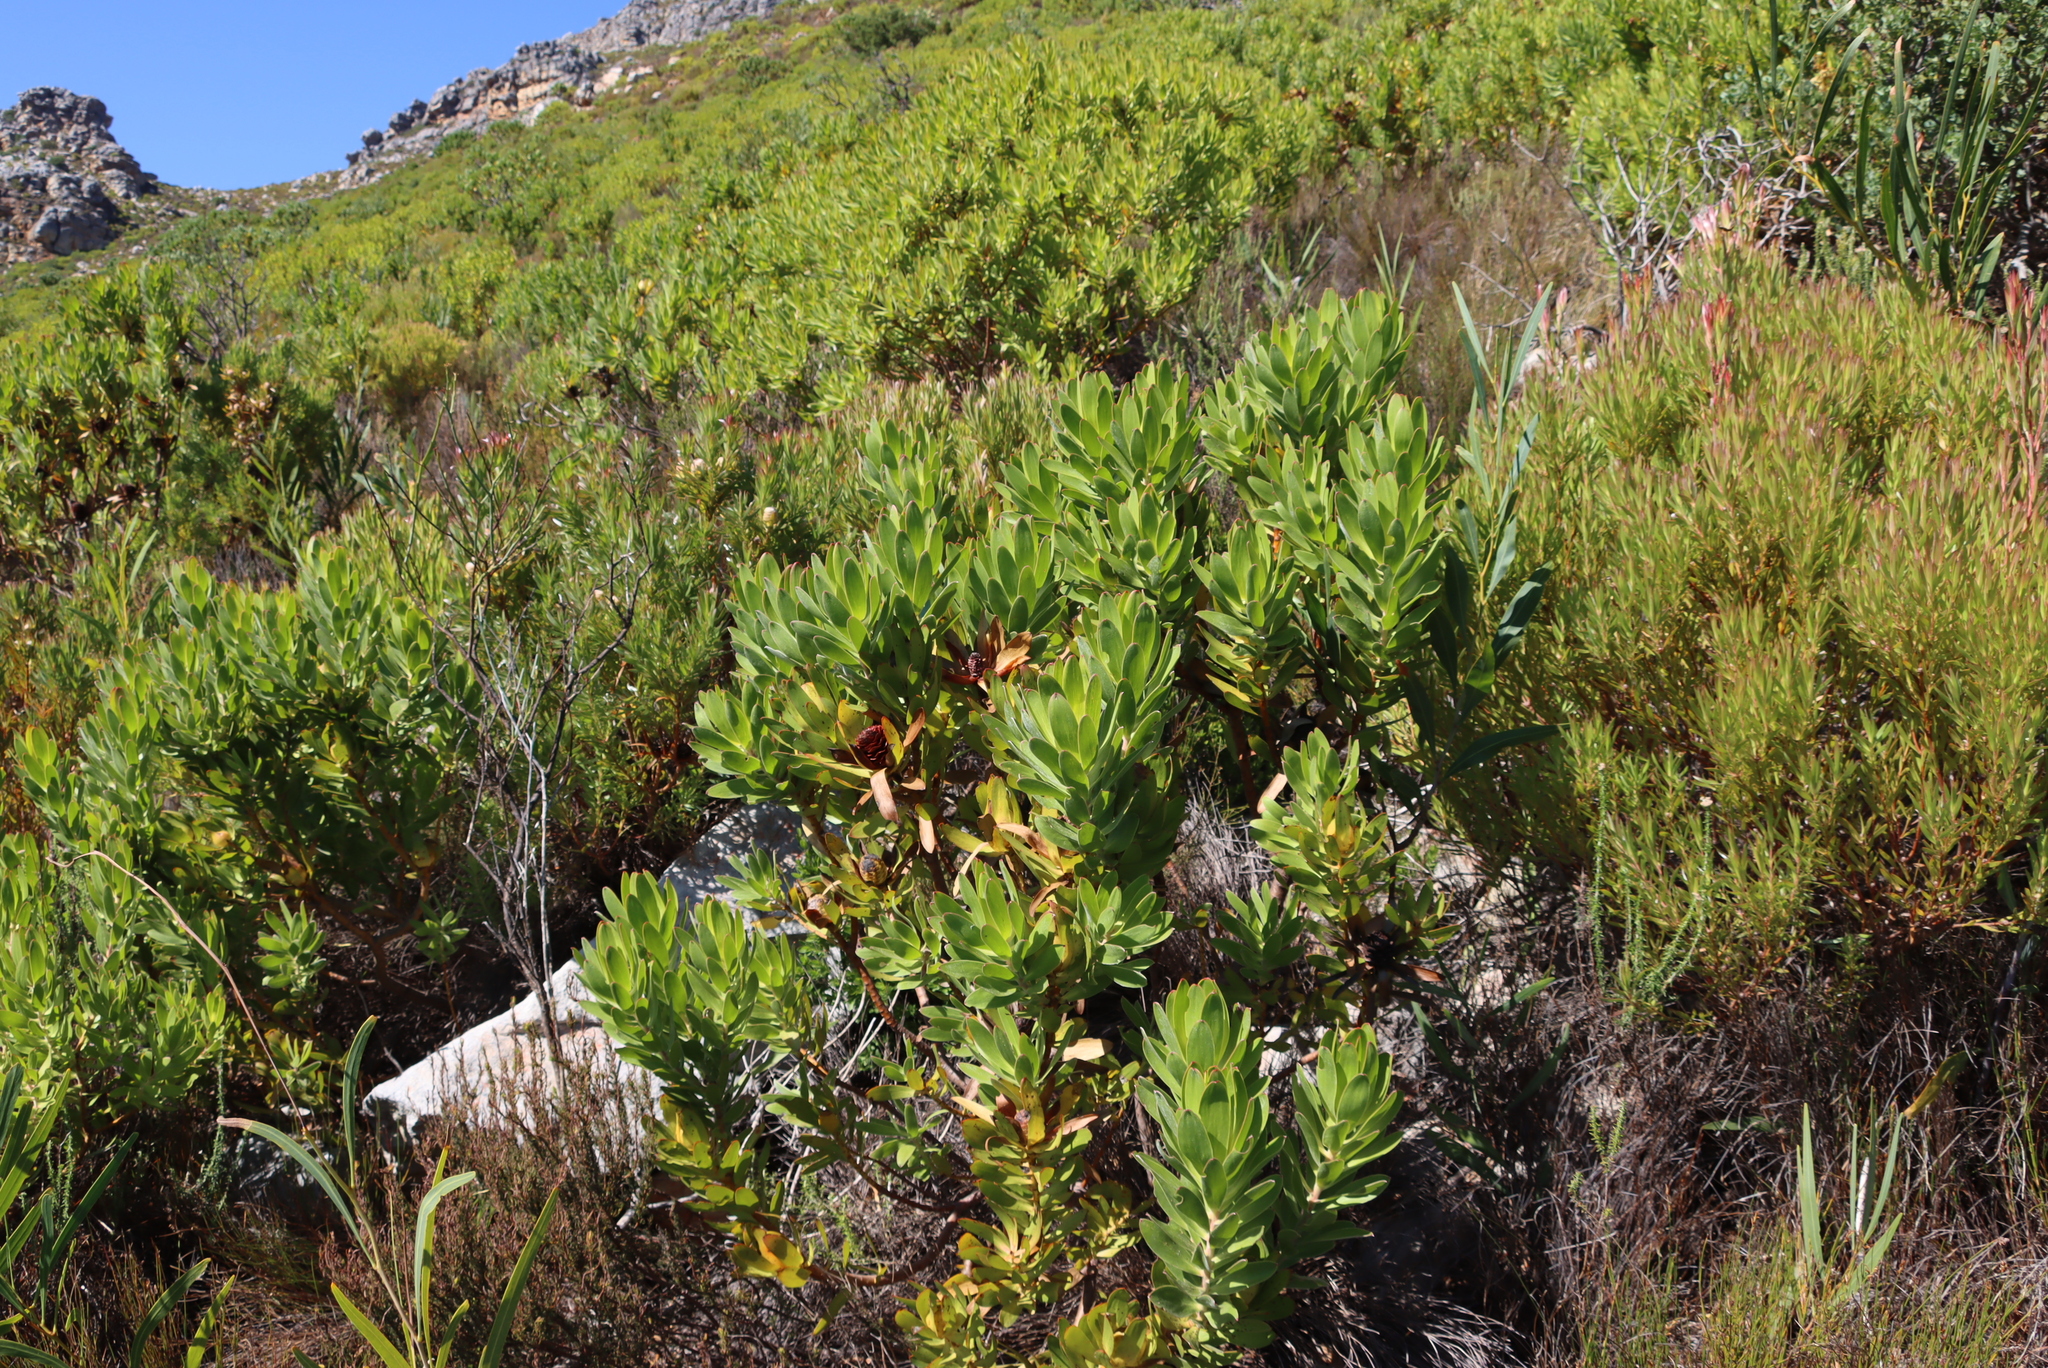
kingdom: Plantae
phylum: Tracheophyta
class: Magnoliopsida
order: Proteales
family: Proteaceae
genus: Leucadendron
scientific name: Leucadendron laureolum
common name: Golden sunshinebush
